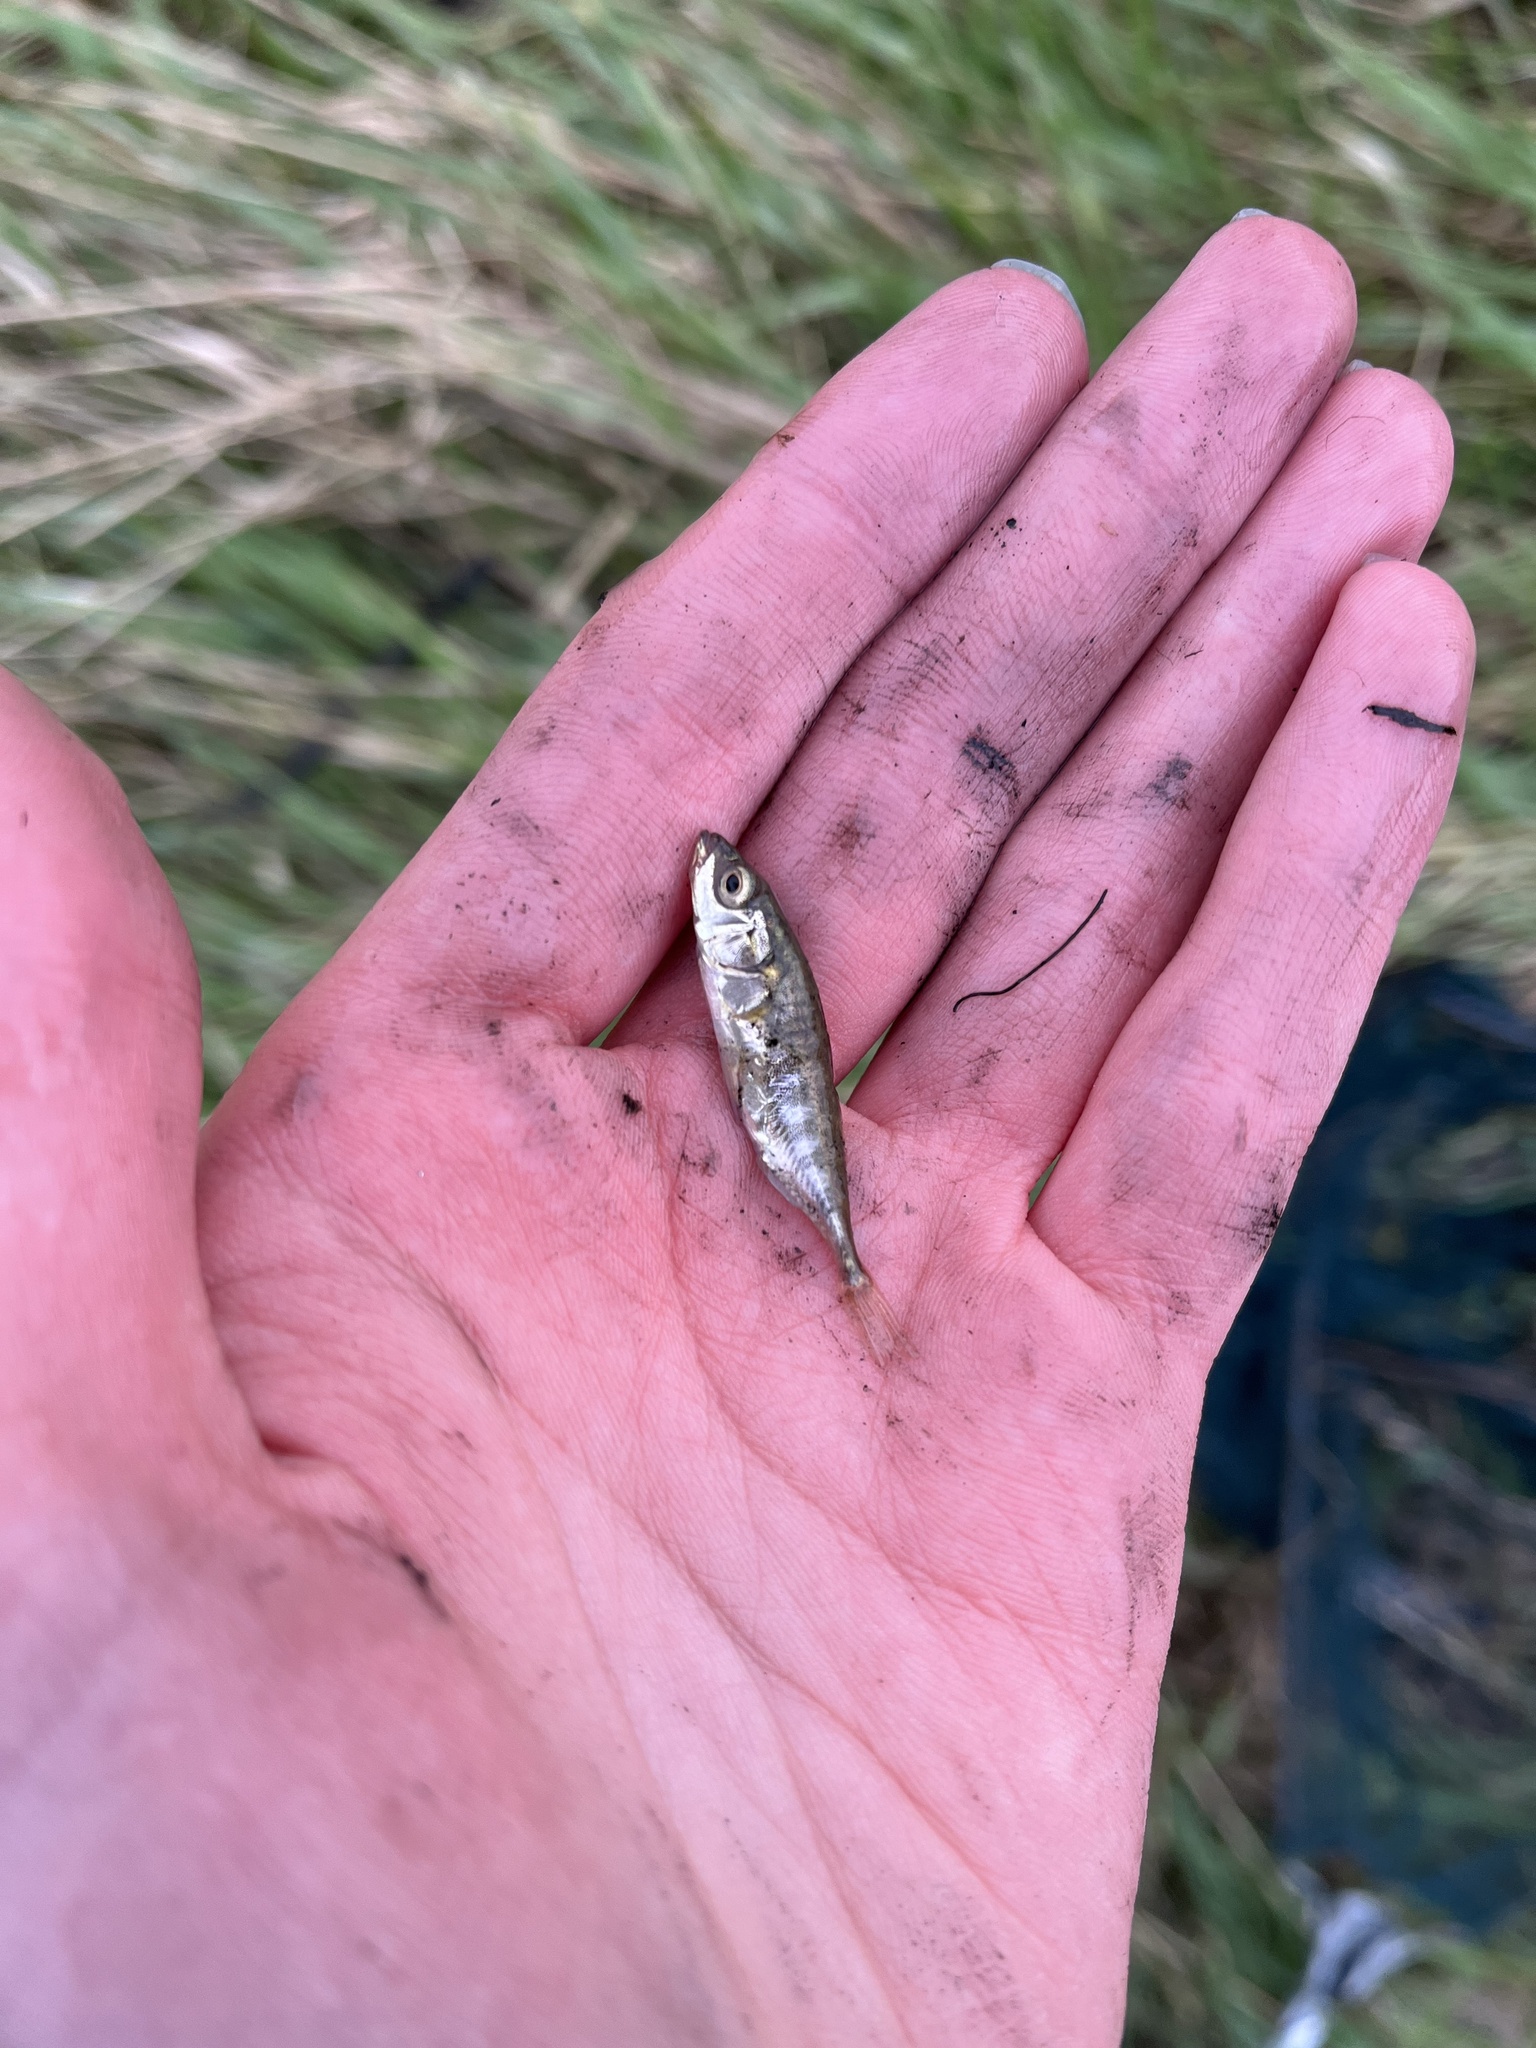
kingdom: Animalia
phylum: Chordata
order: Gasterosteiformes
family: Gasterosteidae
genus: Gasterosteus
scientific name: Gasterosteus aculeatus
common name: Three-spined stickleback
